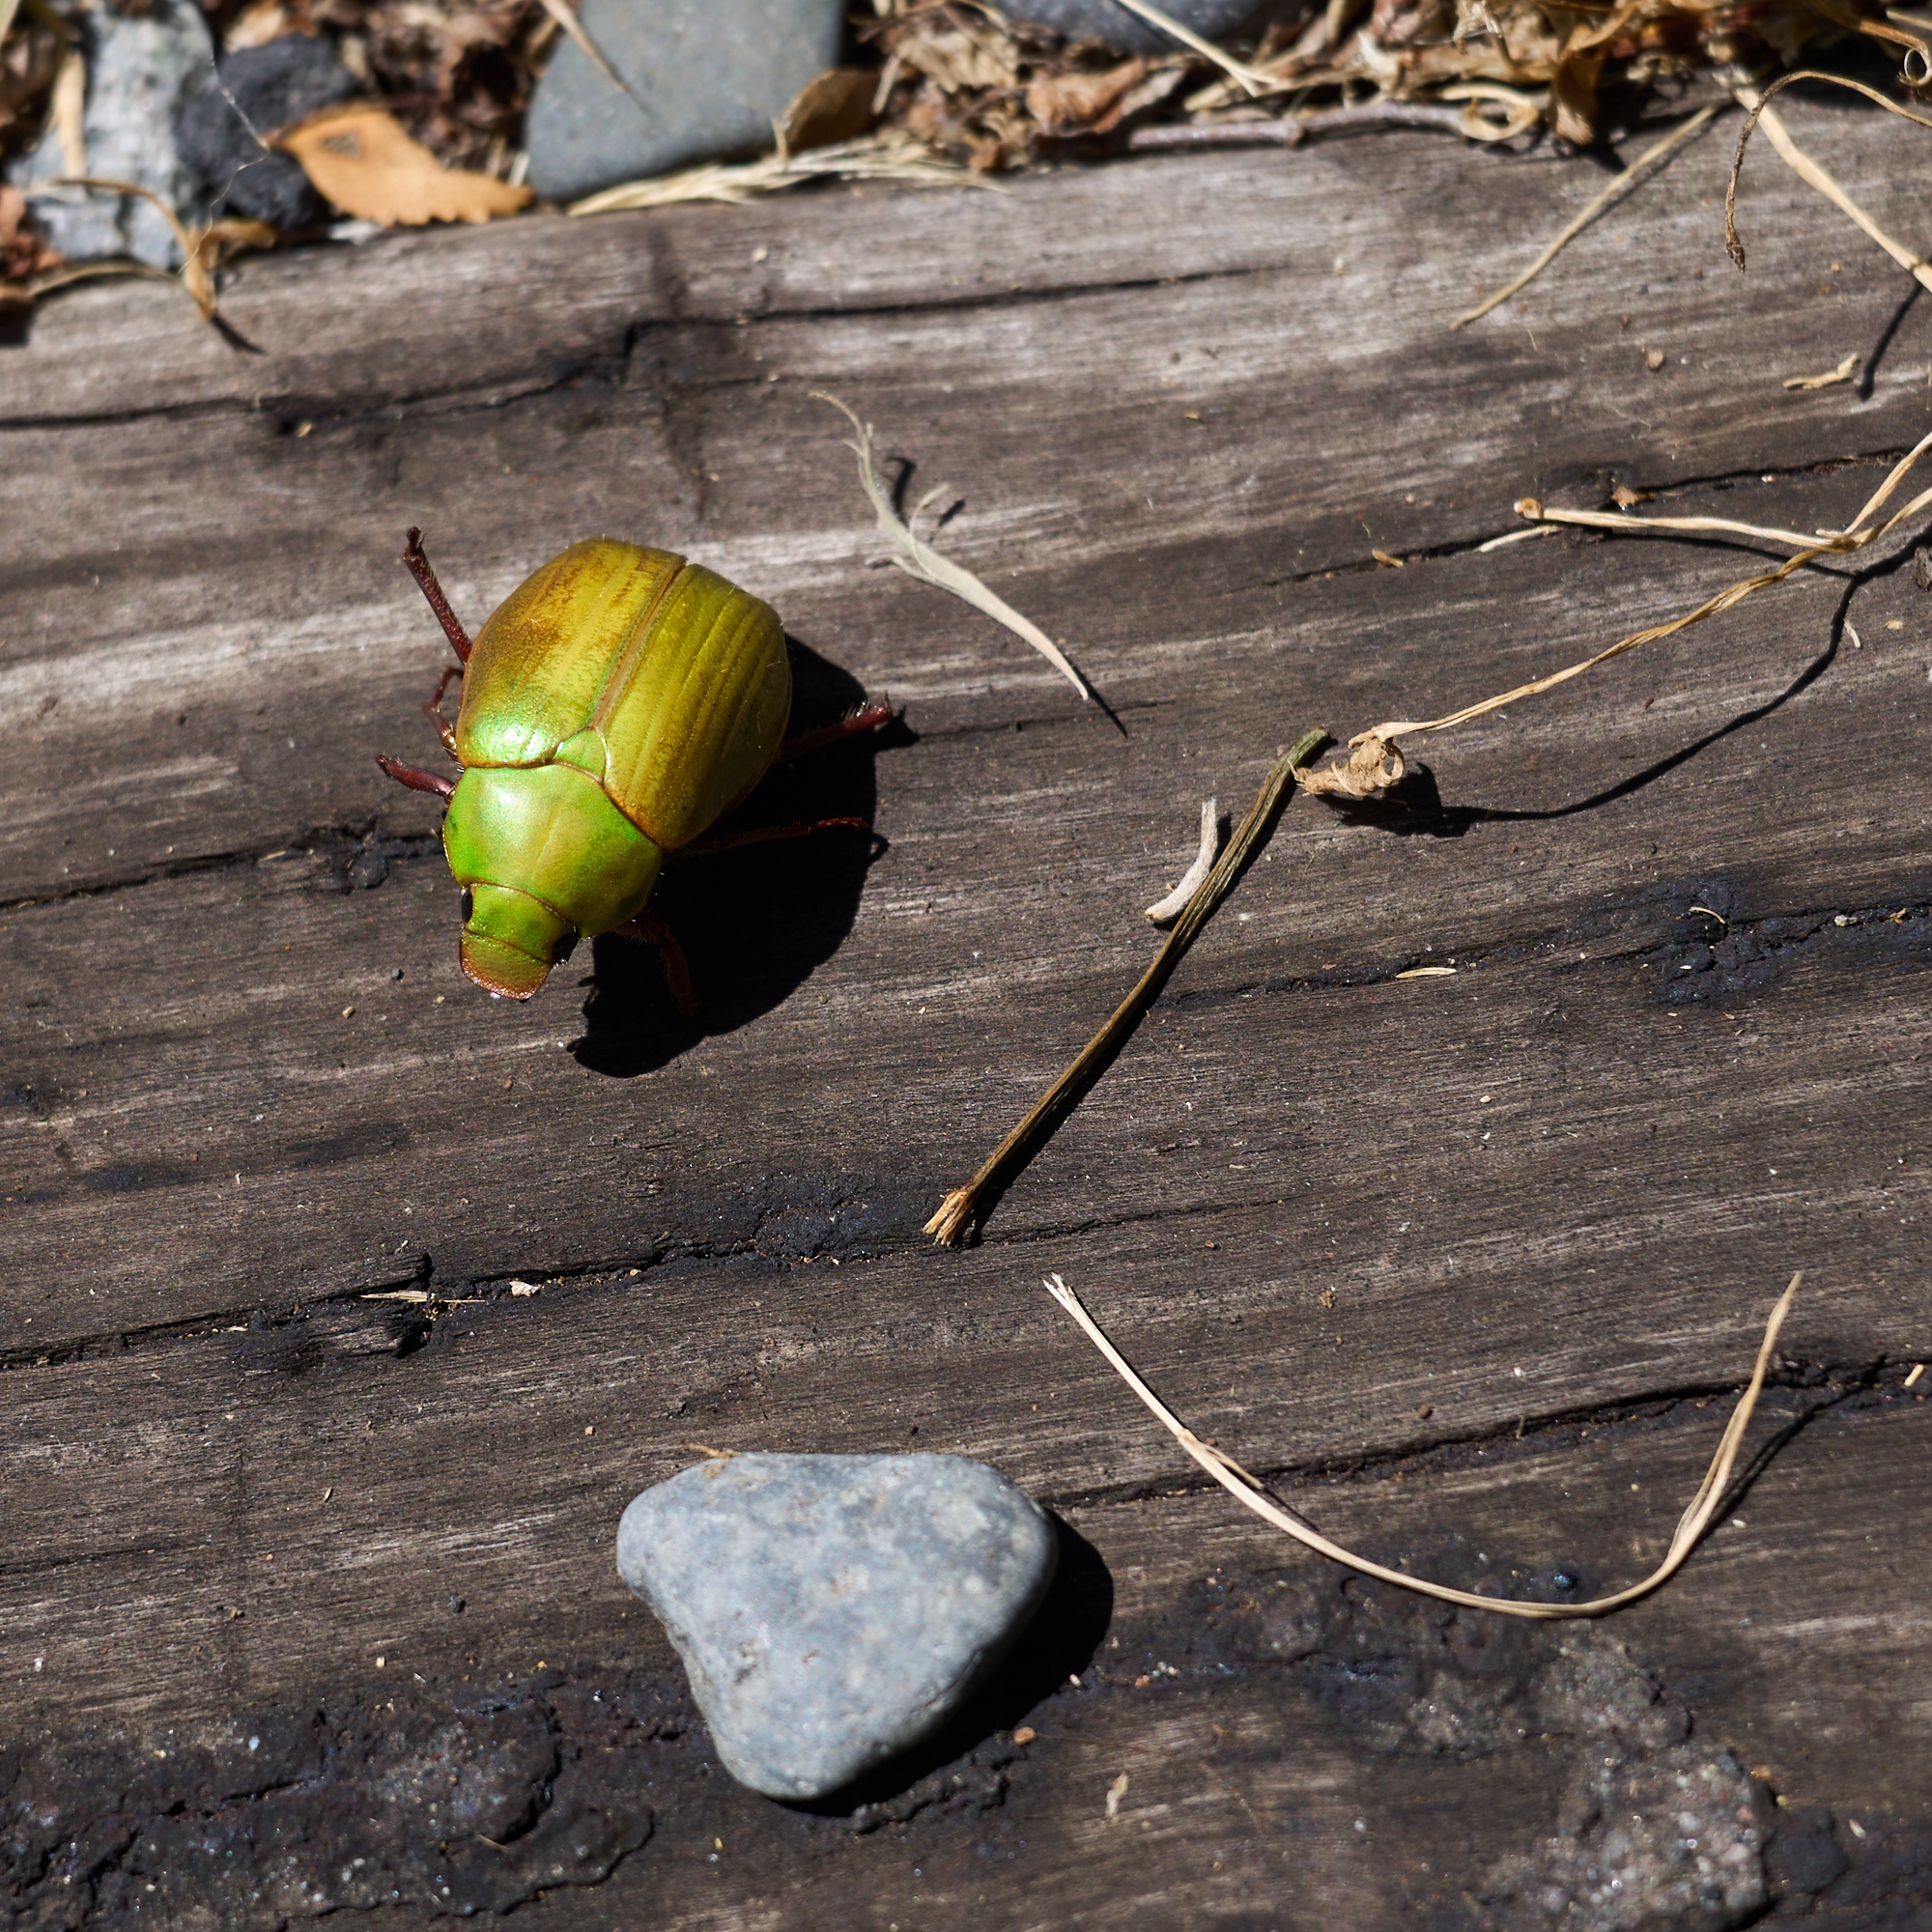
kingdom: Animalia
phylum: Arthropoda
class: Insecta
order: Coleoptera
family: Scarabaeidae
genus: Modialis
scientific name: Modialis prasinella
